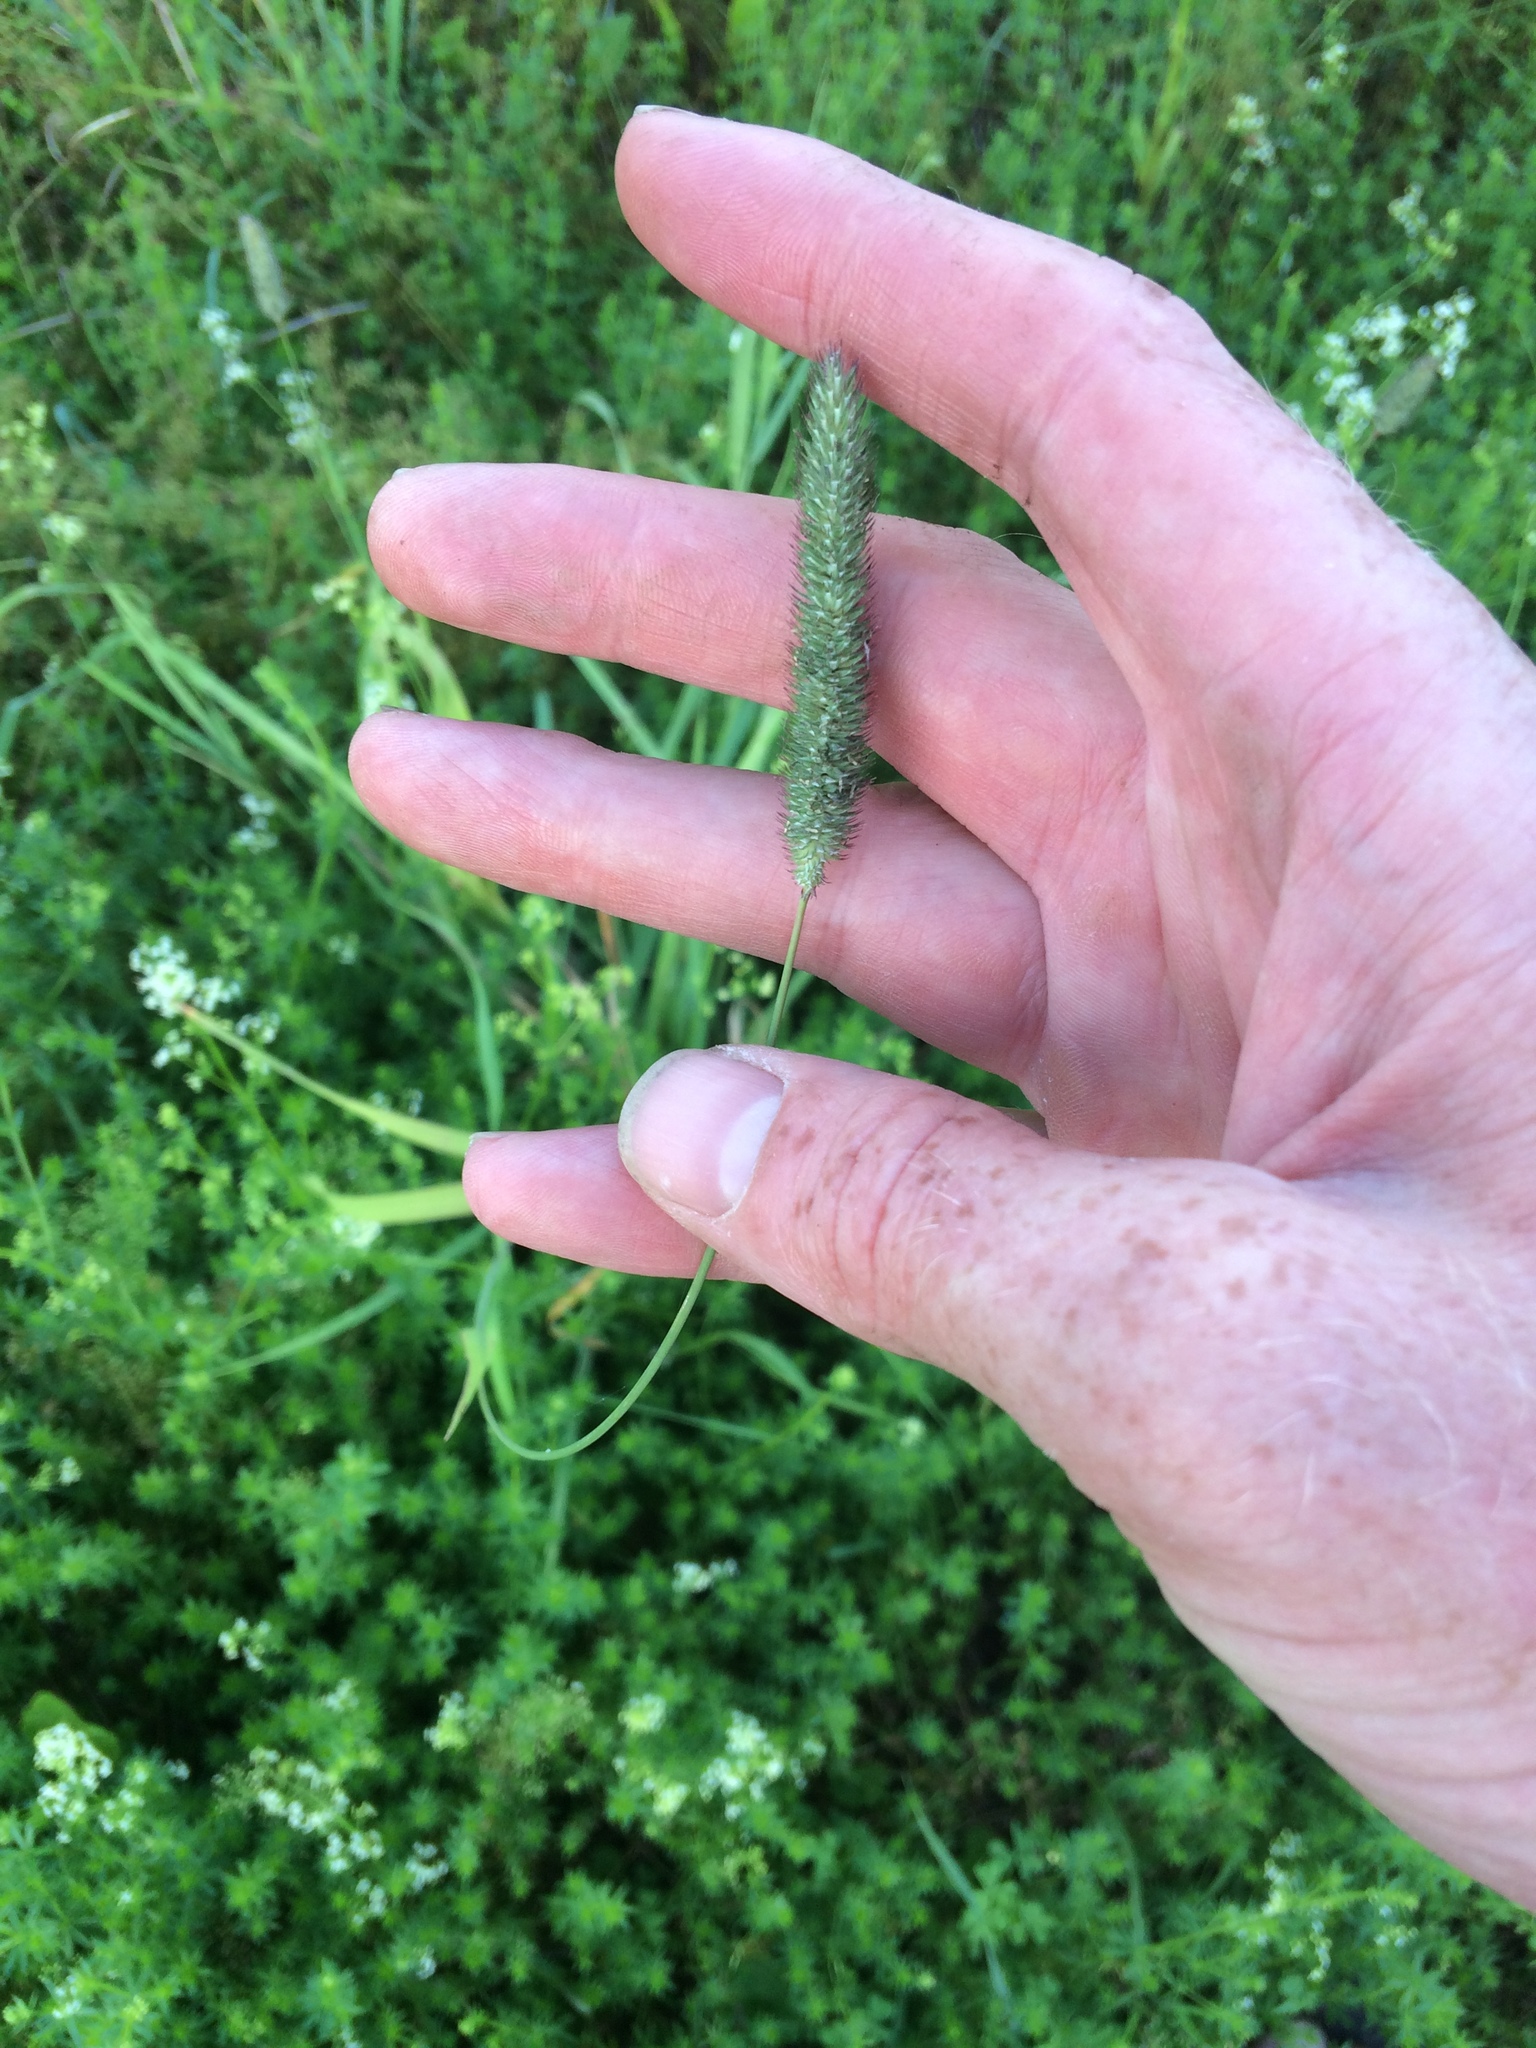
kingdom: Plantae
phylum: Tracheophyta
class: Liliopsida
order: Poales
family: Poaceae
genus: Phleum
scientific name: Phleum pratense
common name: Timothy grass
